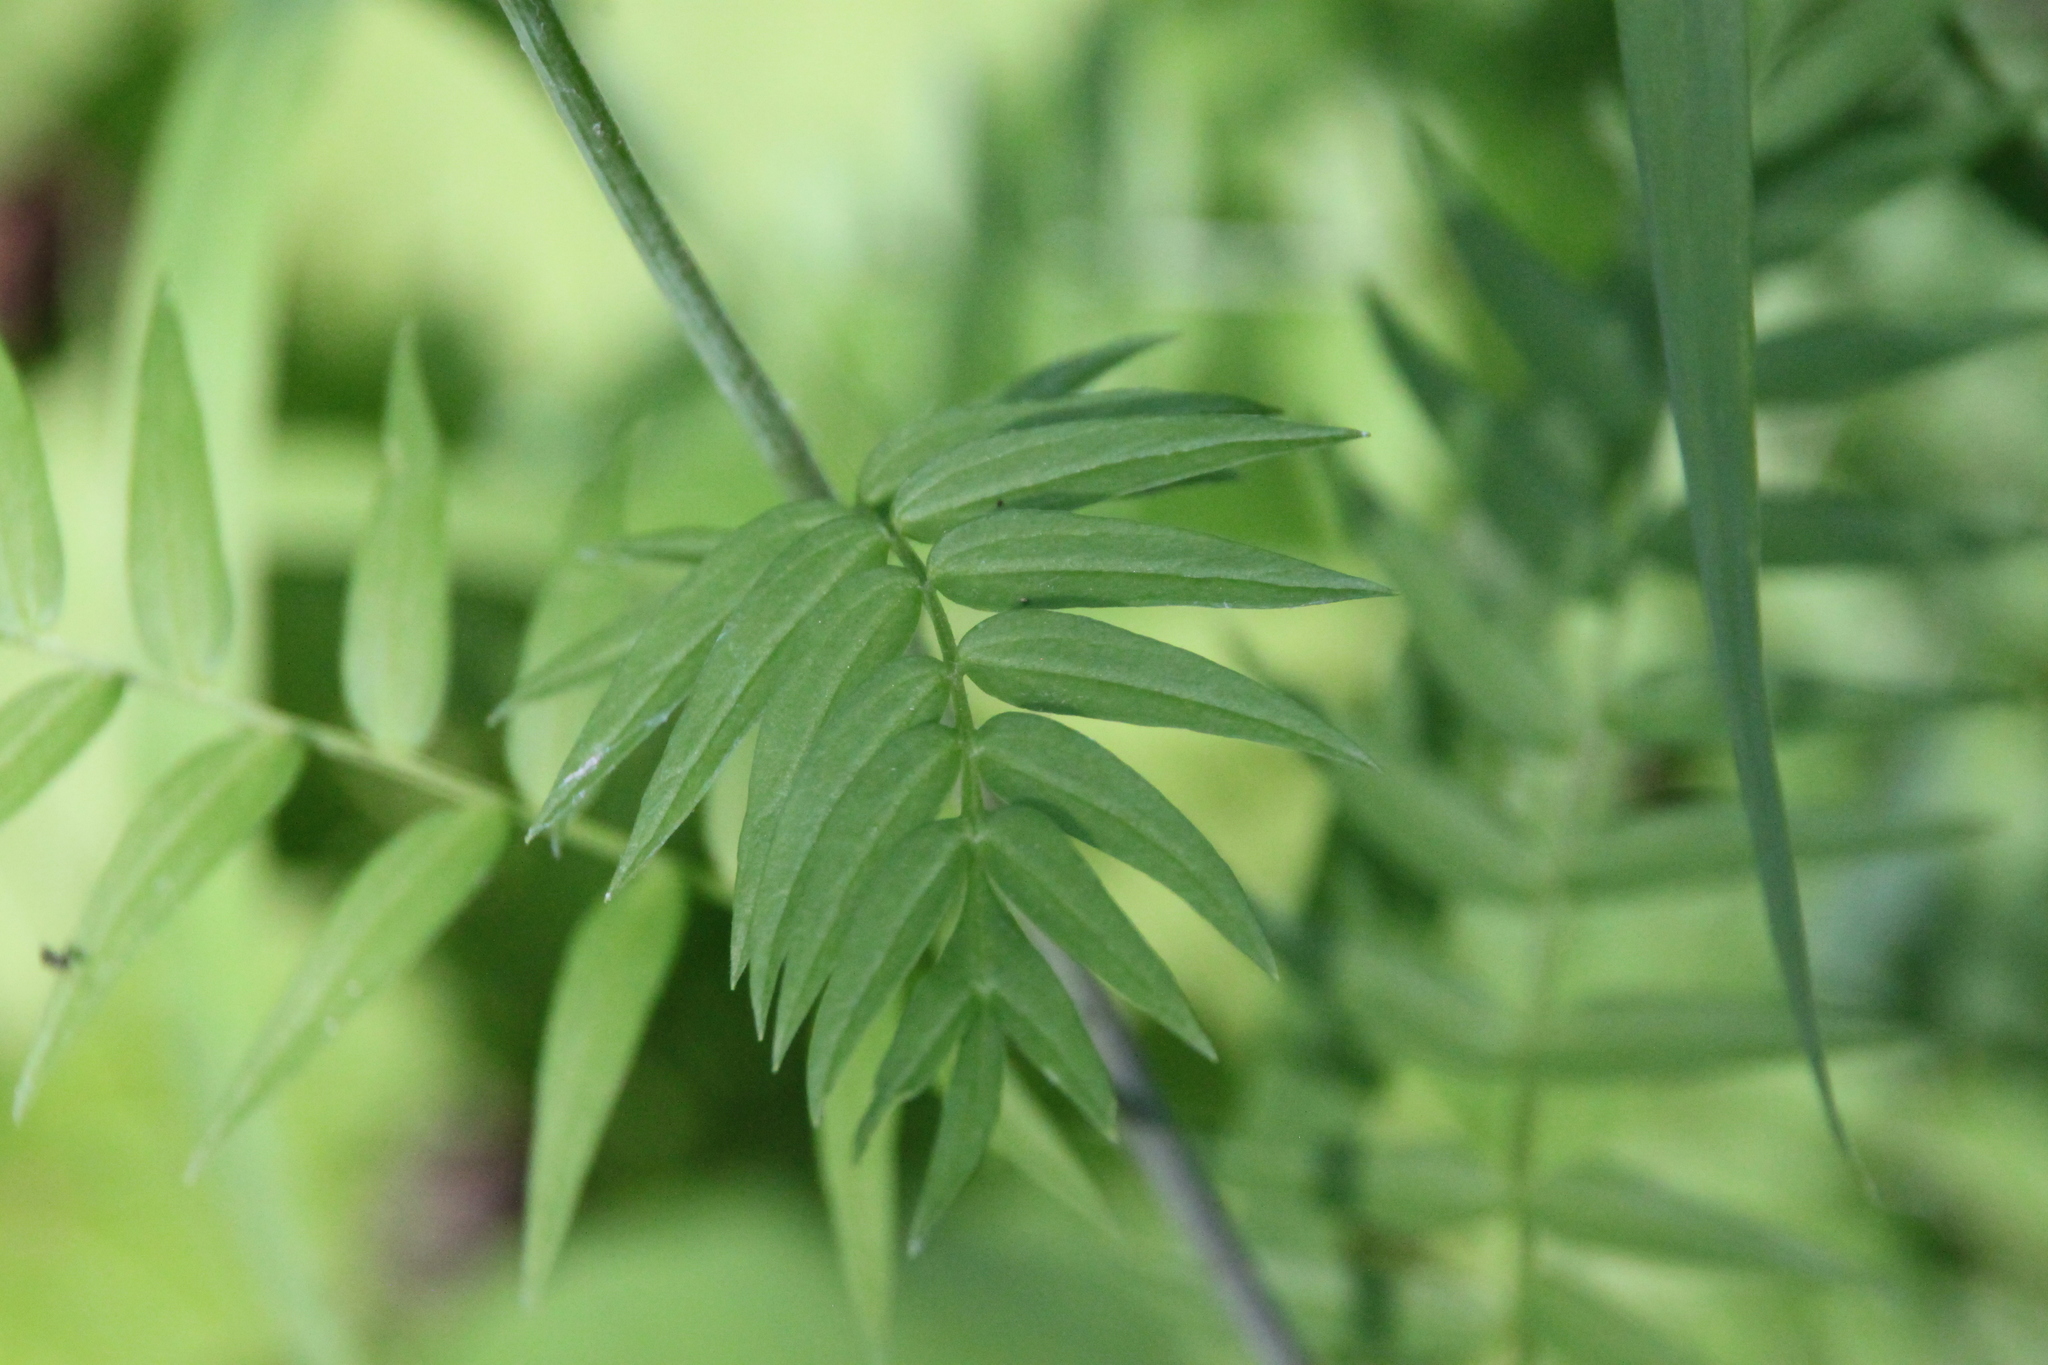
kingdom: Plantae
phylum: Tracheophyta
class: Magnoliopsida
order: Ericales
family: Polemoniaceae
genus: Polemonium
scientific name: Polemonium caeruleum
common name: Jacob's-ladder
